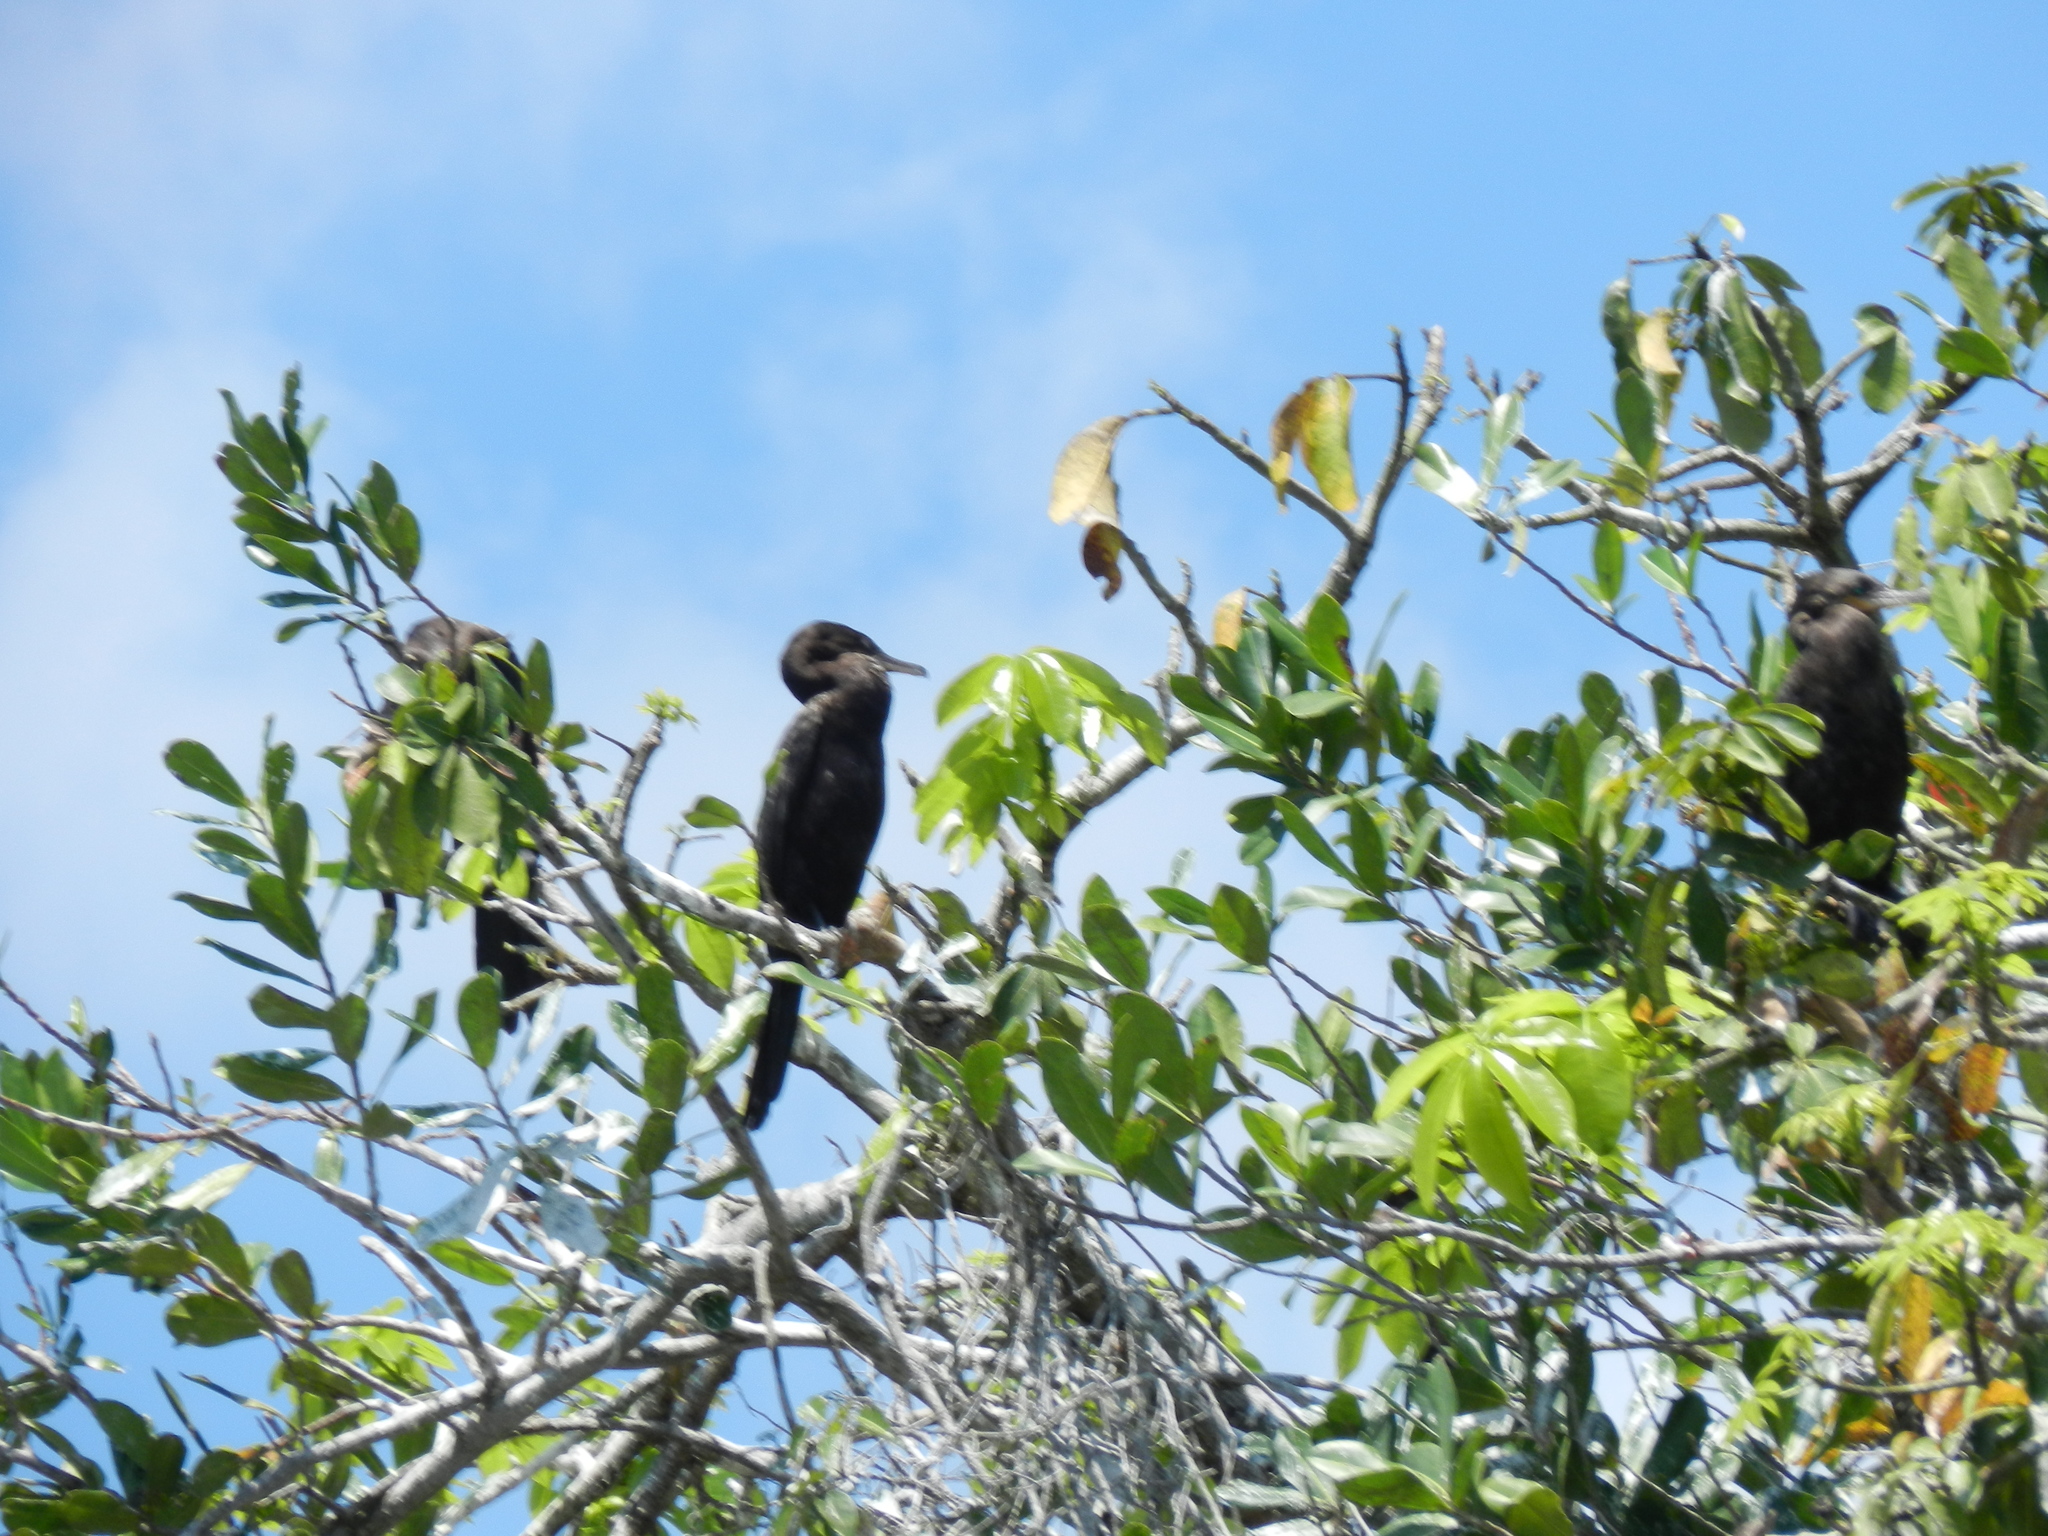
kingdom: Animalia
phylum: Chordata
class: Aves
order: Suliformes
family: Phalacrocoracidae
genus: Phalacrocorax
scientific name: Phalacrocorax brasilianus
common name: Neotropic cormorant
